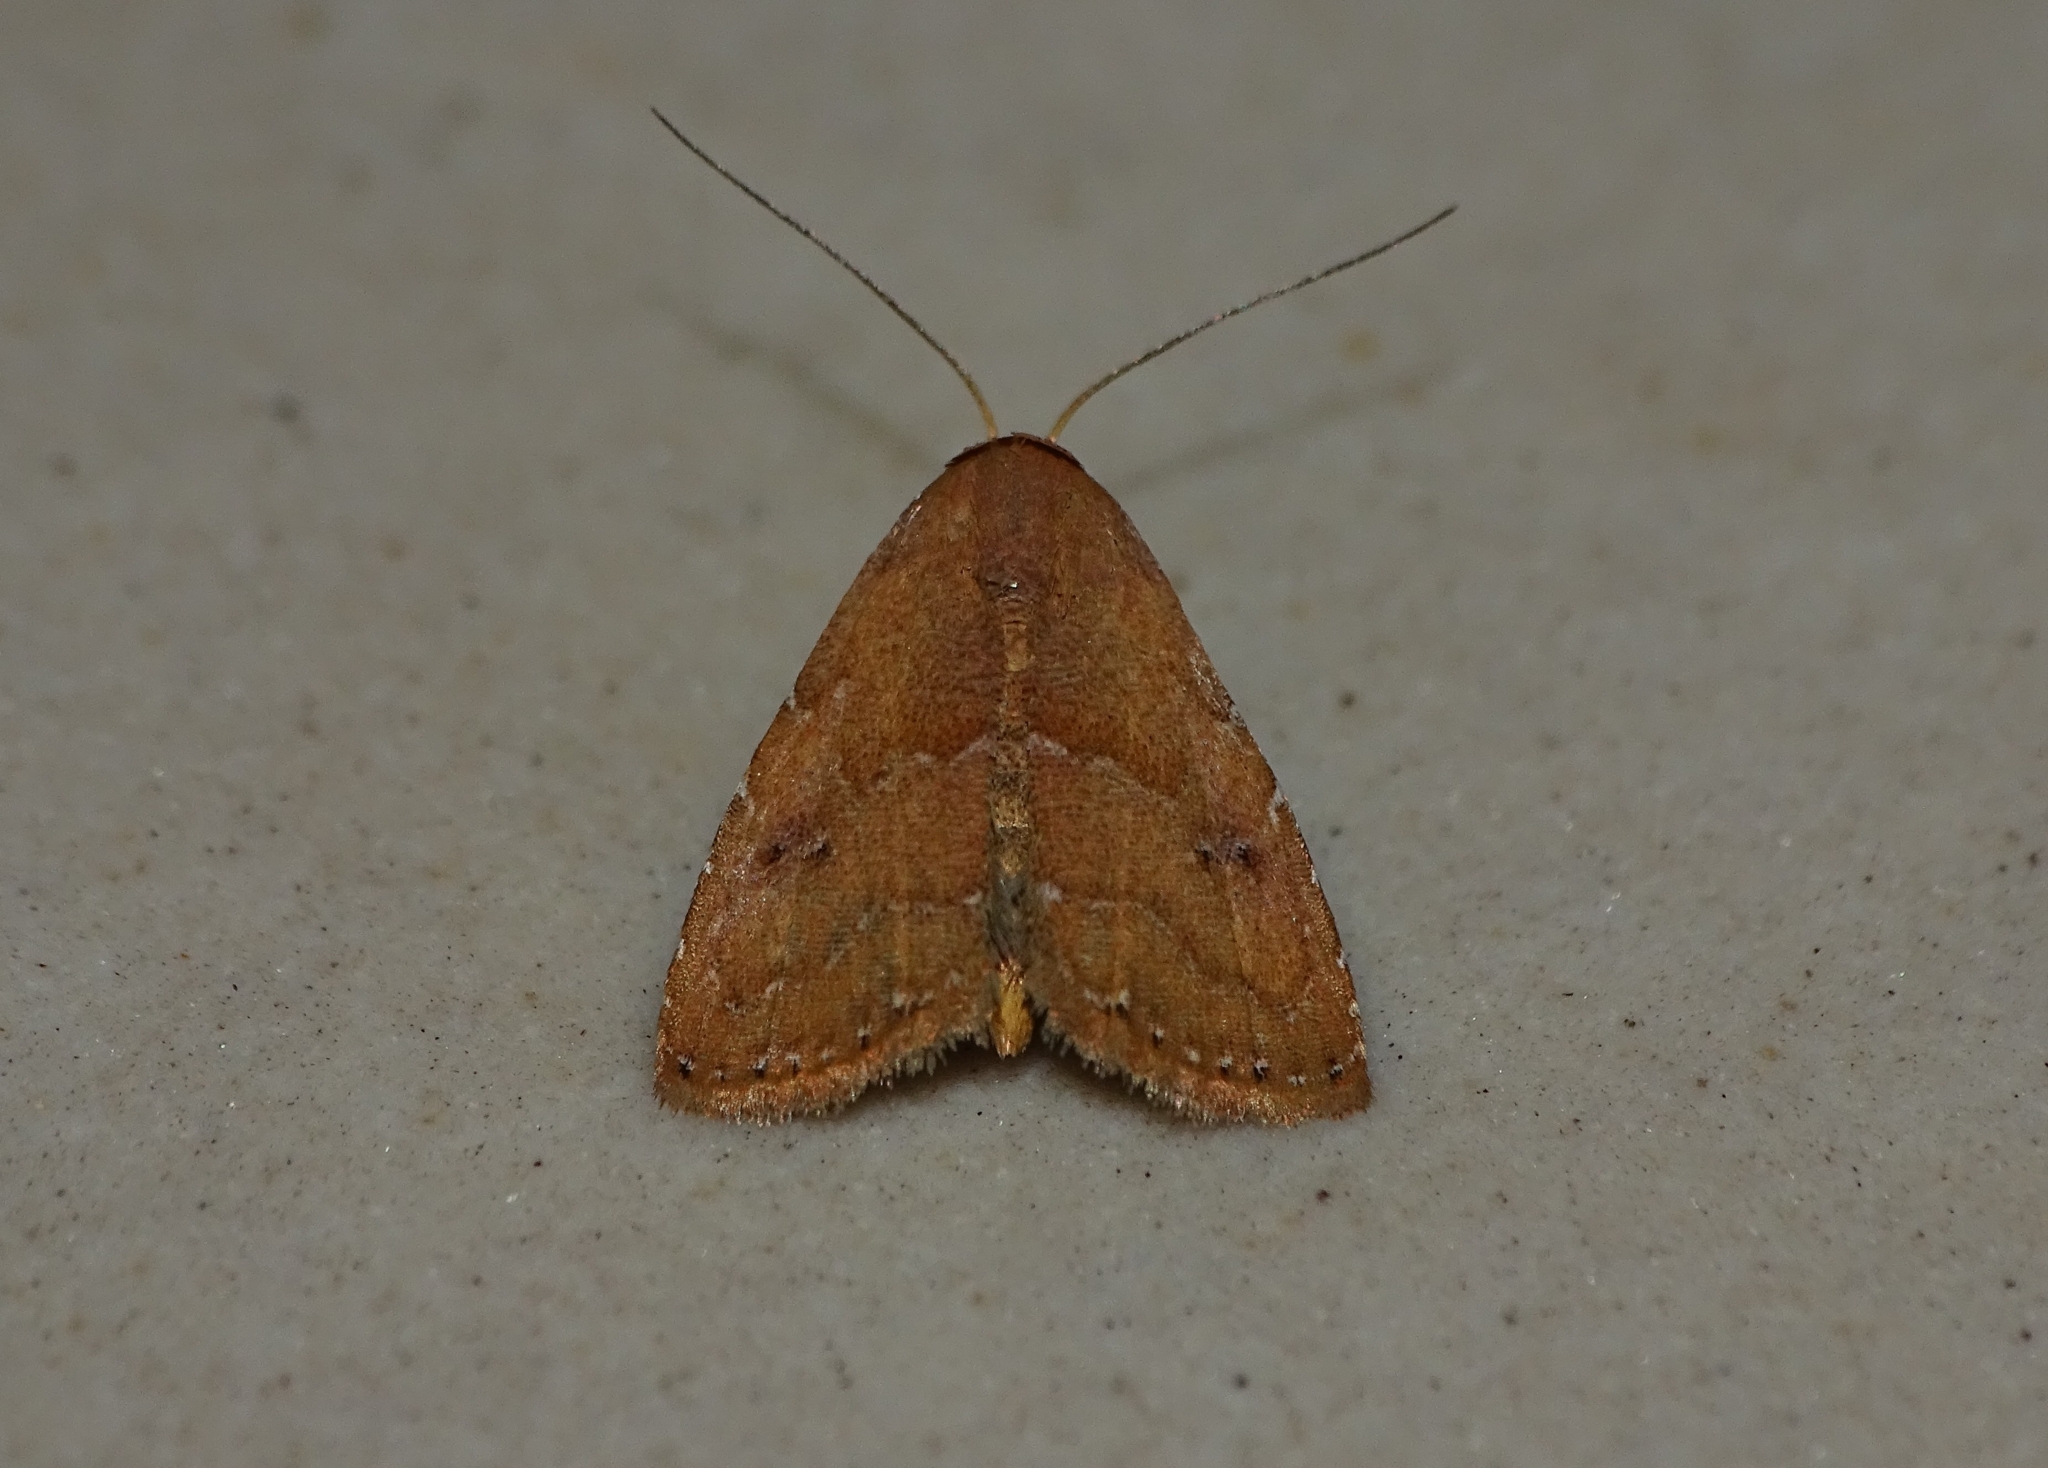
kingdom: Animalia
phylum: Arthropoda
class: Insecta
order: Lepidoptera
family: Erebidae
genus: Rivula
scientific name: Rivula bioculalis
